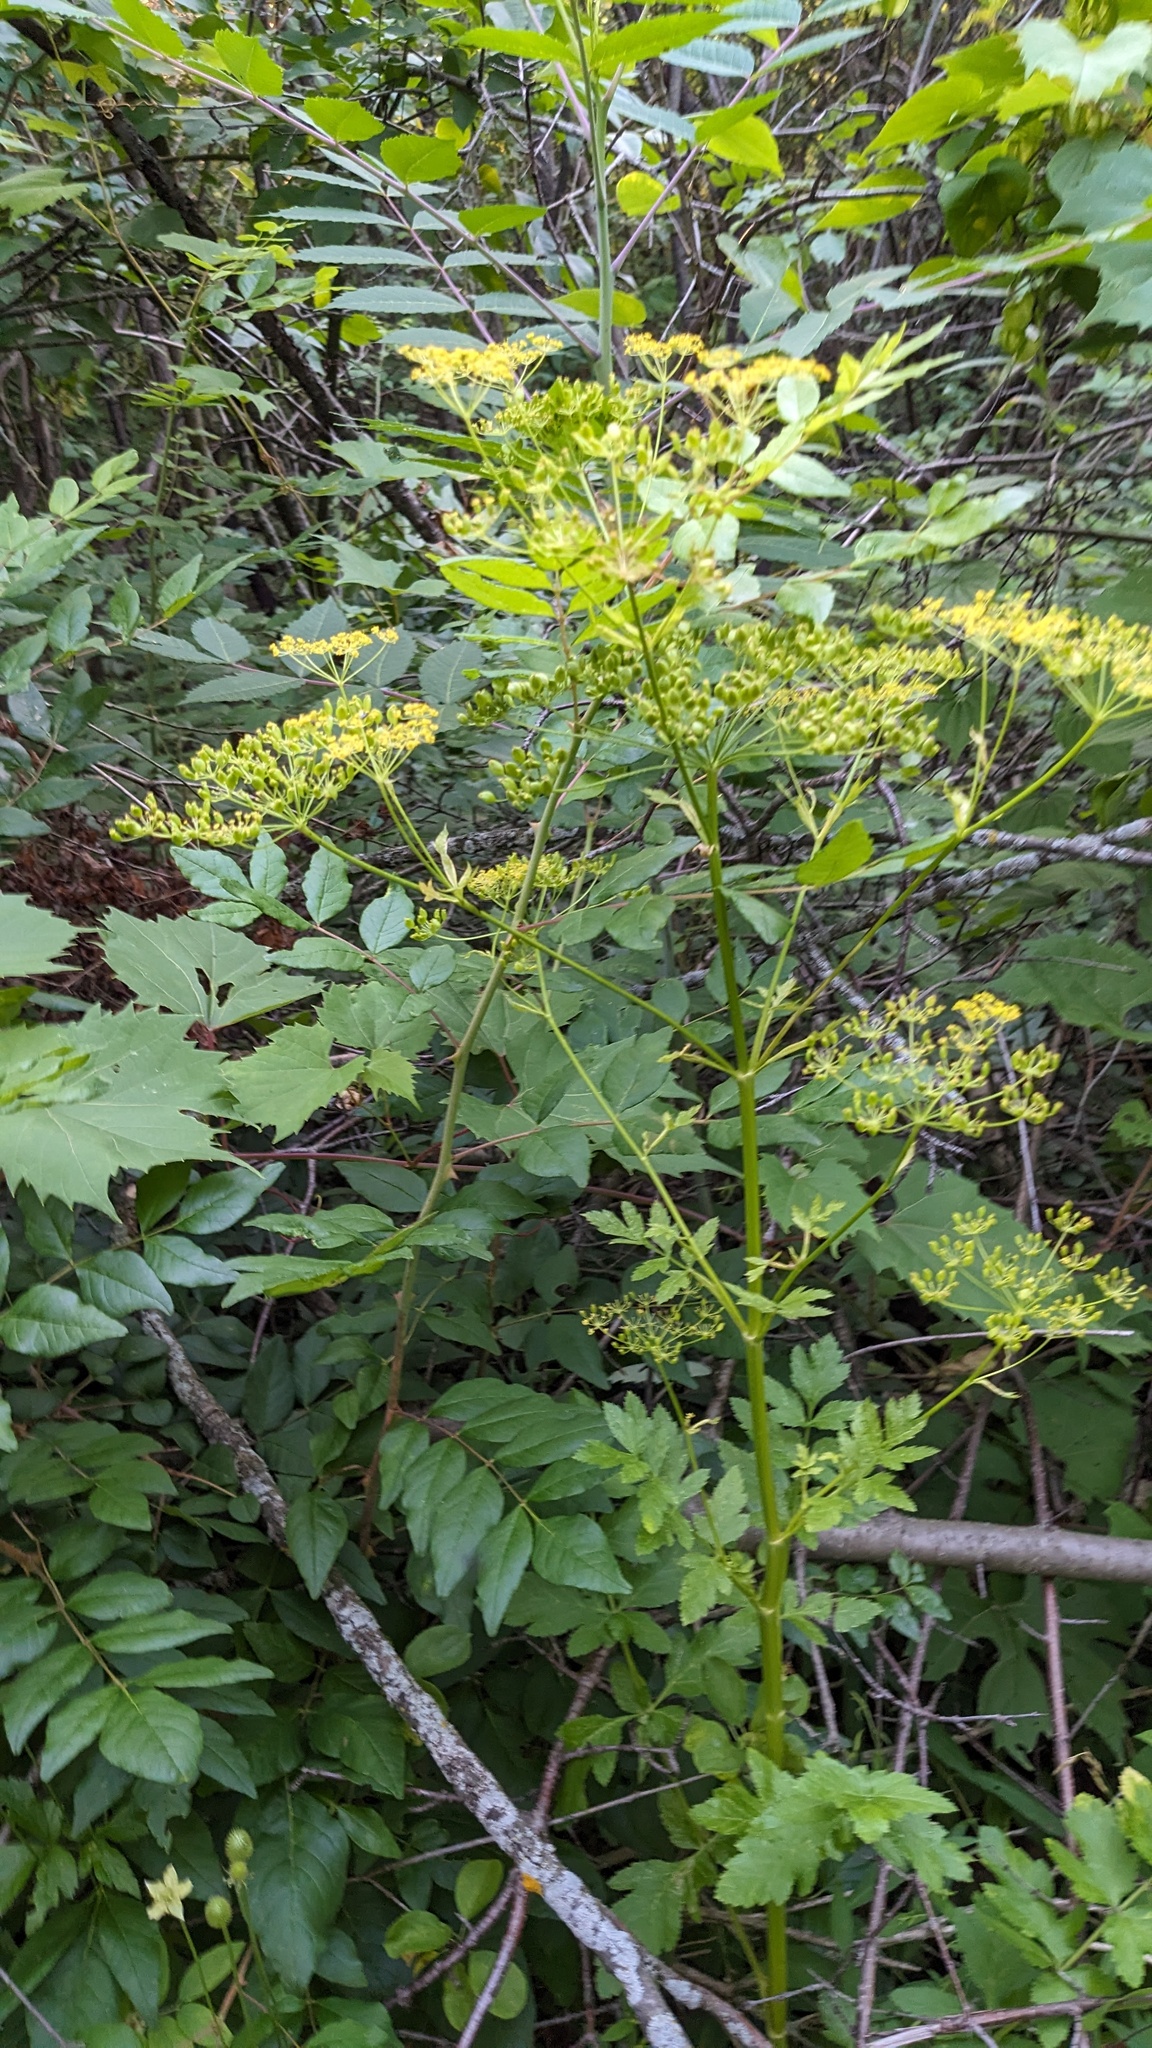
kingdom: Plantae
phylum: Tracheophyta
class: Magnoliopsida
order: Apiales
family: Apiaceae
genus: Pastinaca
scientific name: Pastinaca sativa
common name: Wild parsnip
